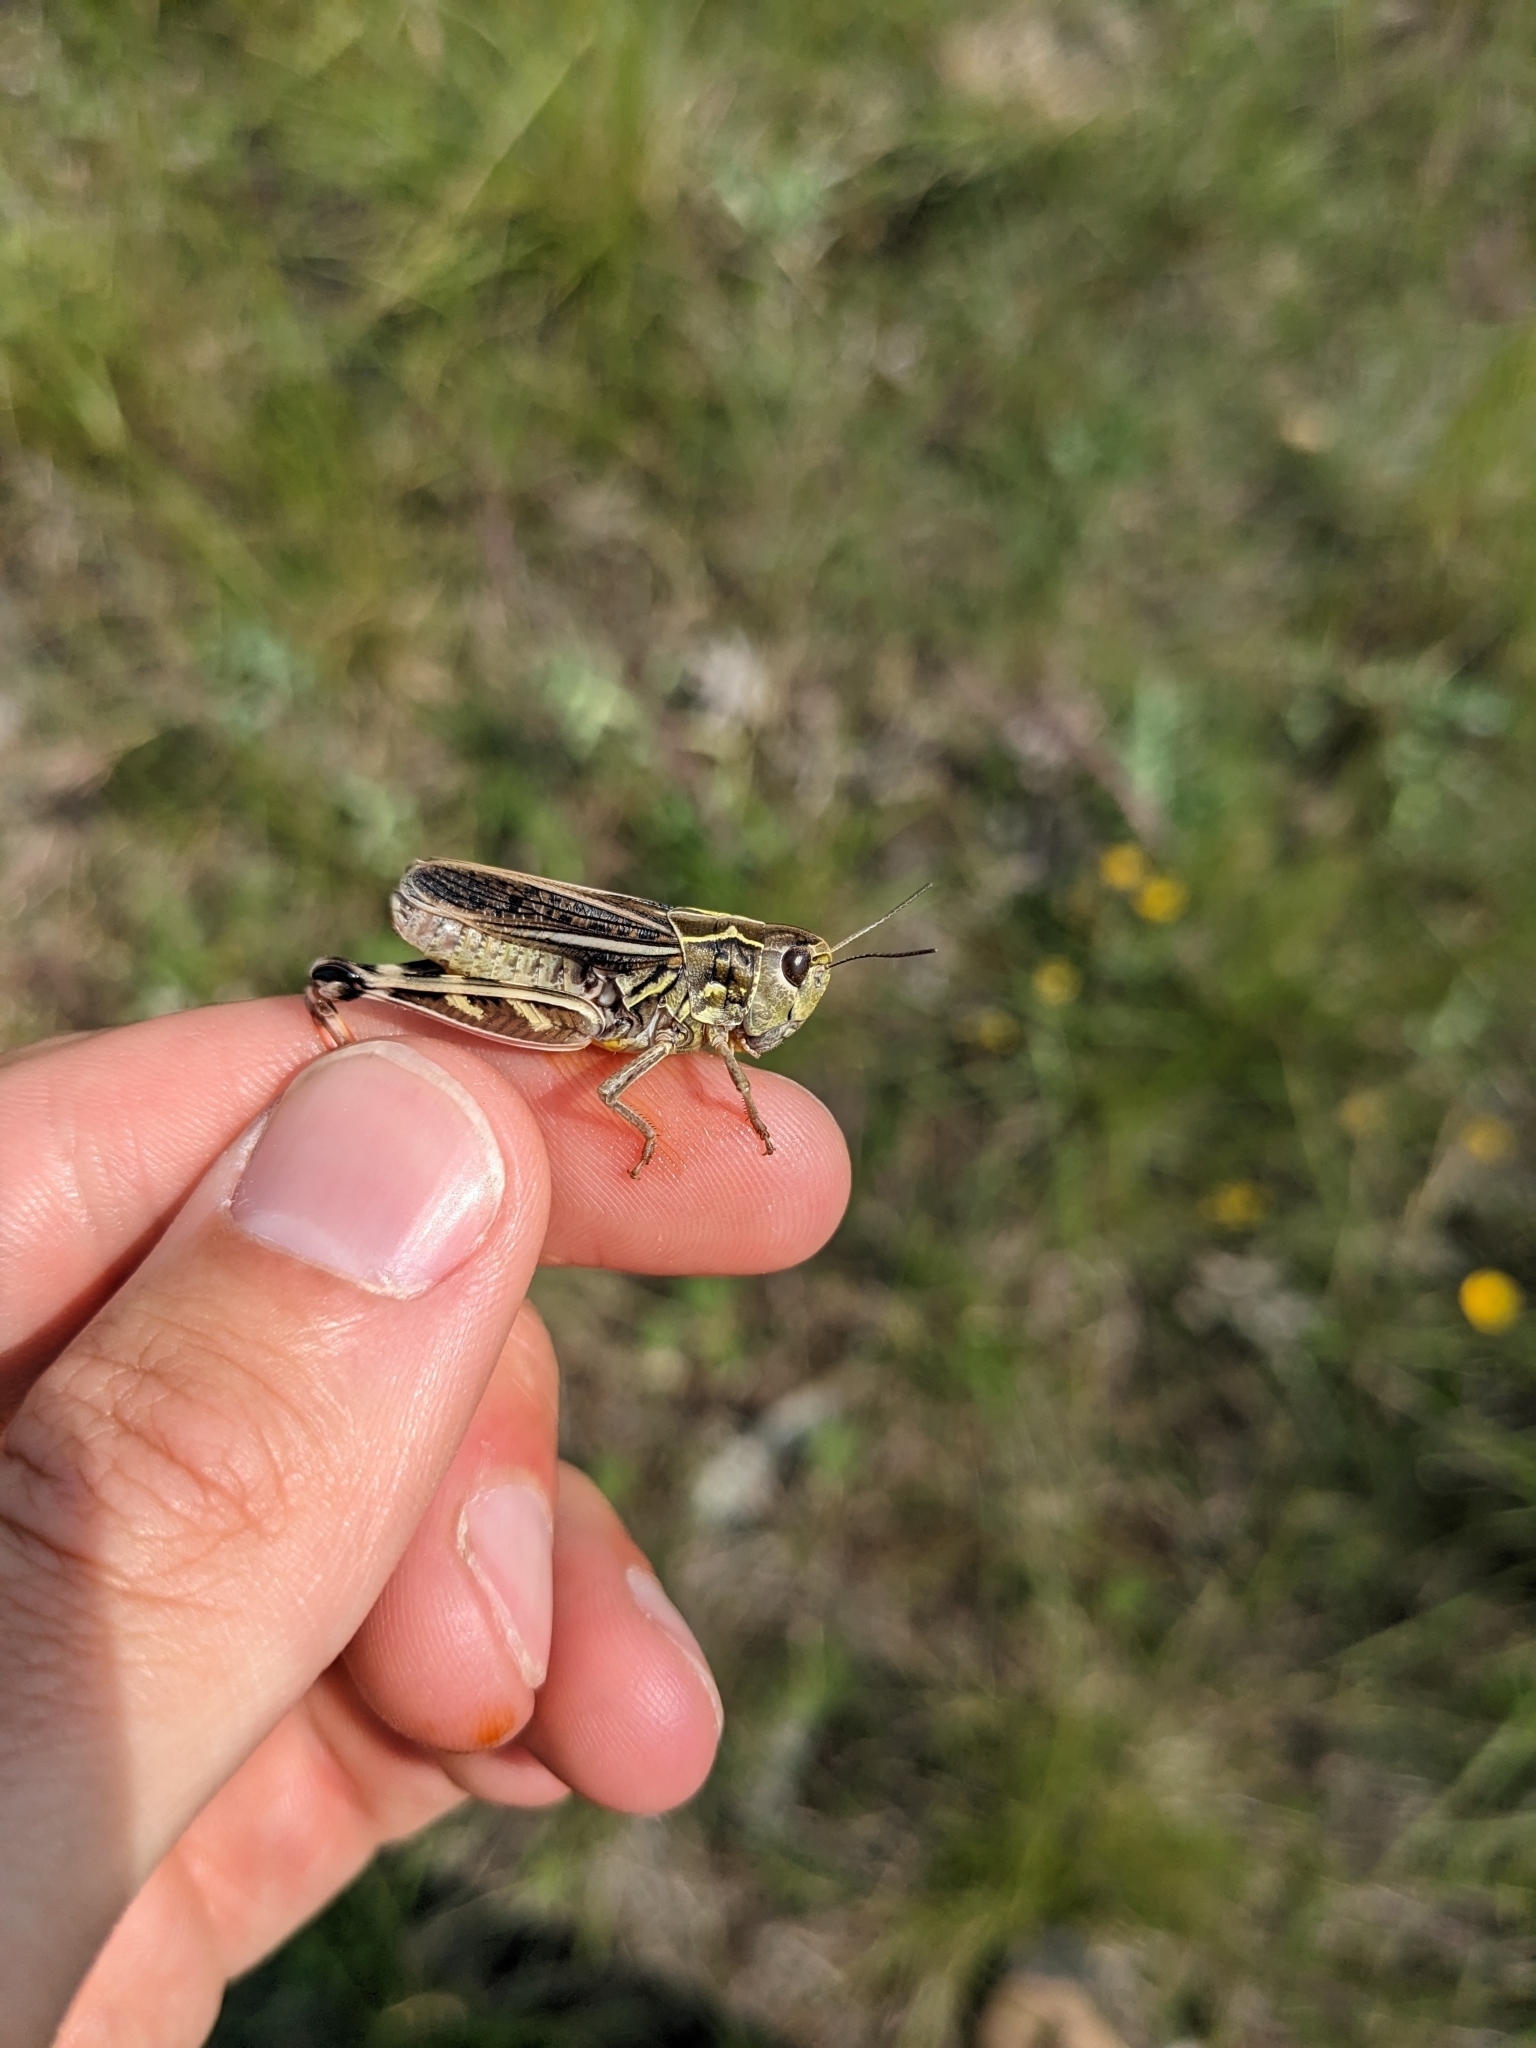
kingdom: Animalia
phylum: Arthropoda
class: Insecta
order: Orthoptera
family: Acrididae
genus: Arcyptera
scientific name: Arcyptera microptera
